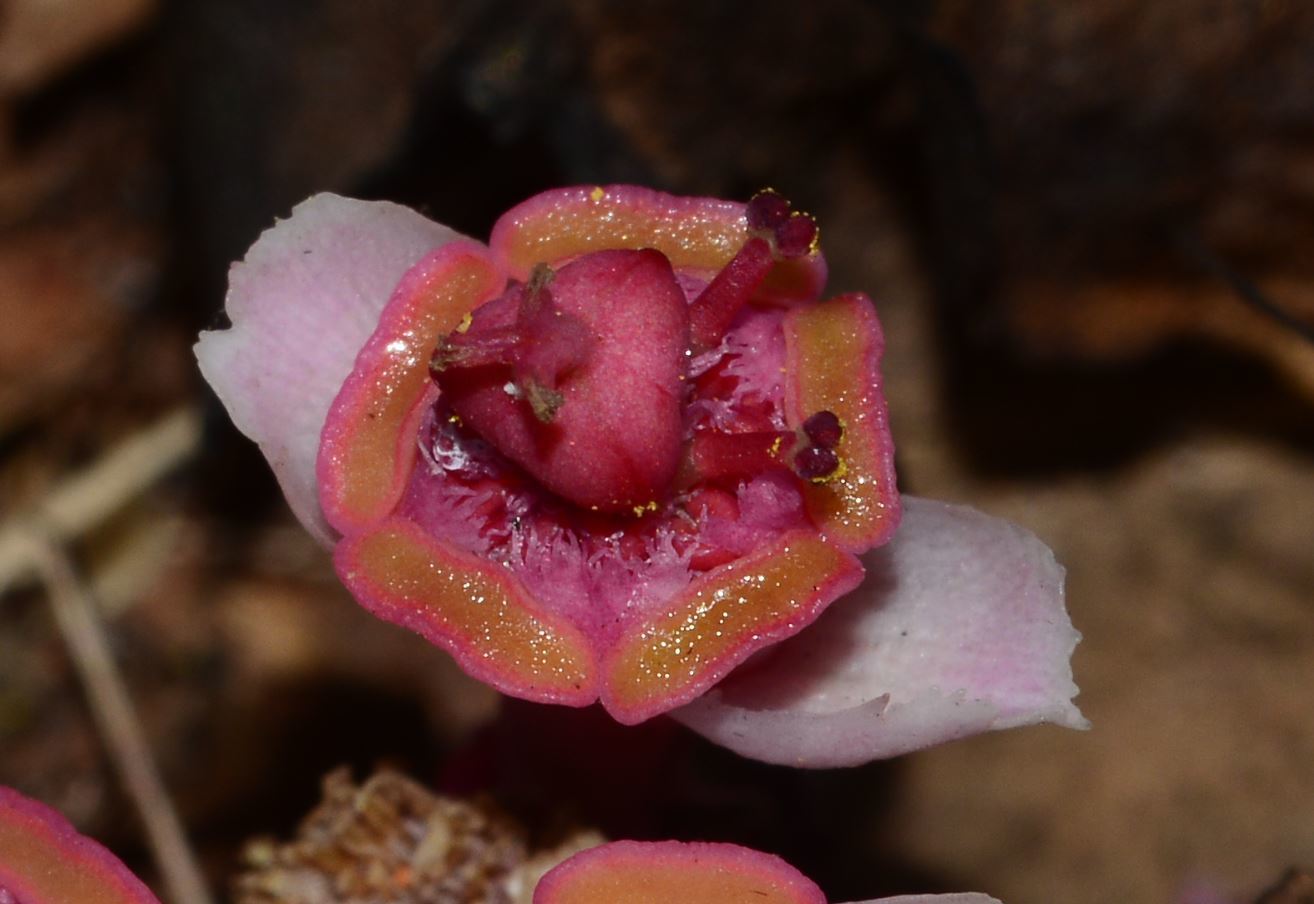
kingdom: Plantae
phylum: Tracheophyta
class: Magnoliopsida
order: Malpighiales
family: Euphorbiaceae
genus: Euphorbia
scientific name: Euphorbia khandallensis
